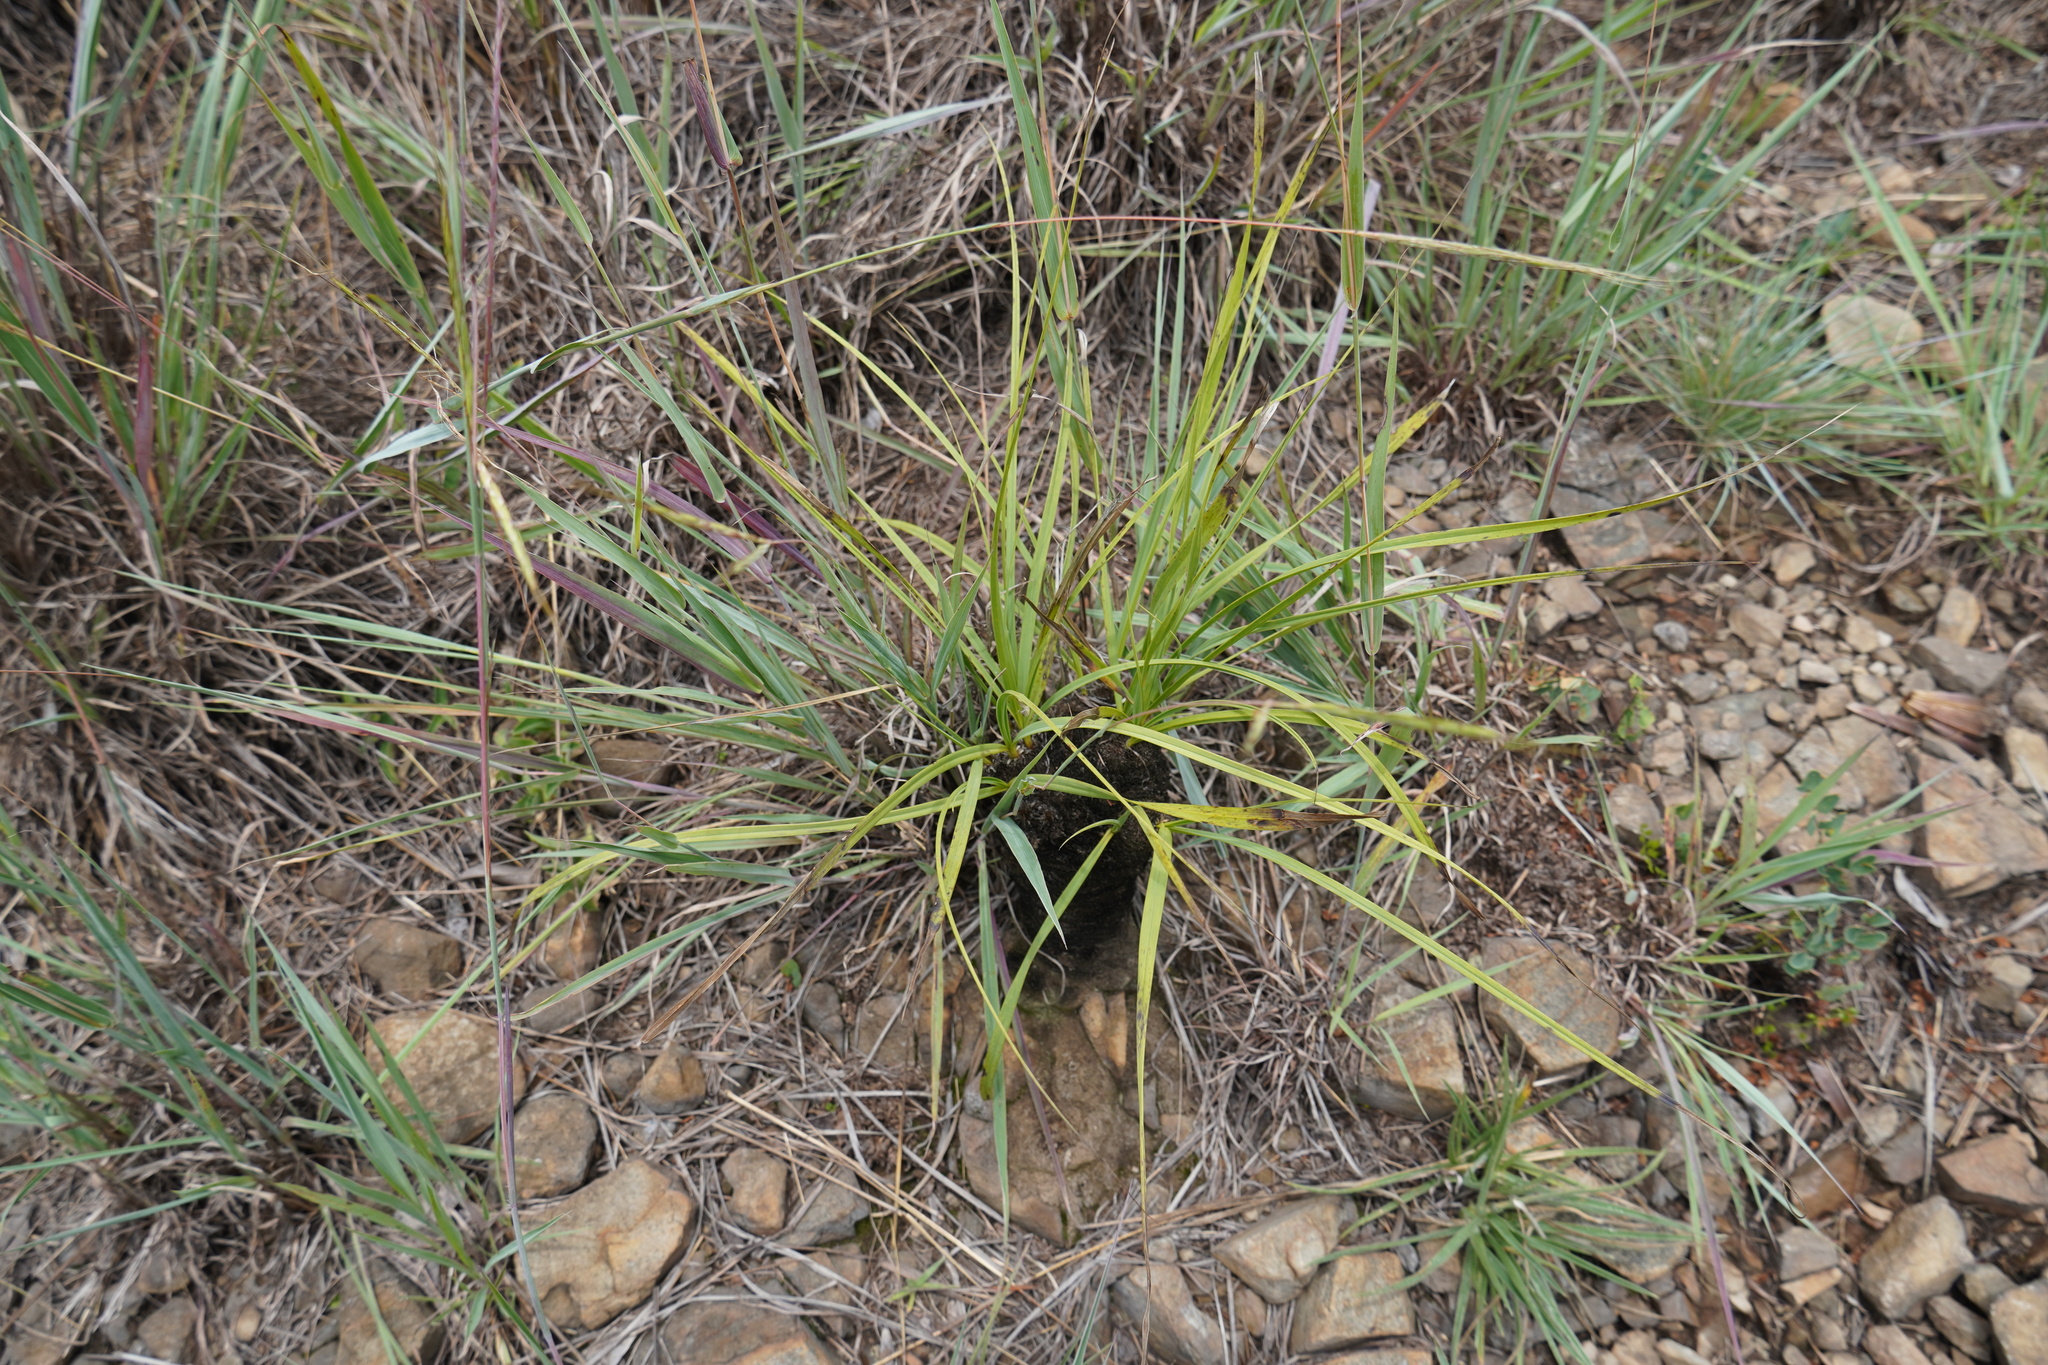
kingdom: Plantae
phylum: Tracheophyta
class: Liliopsida
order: Pandanales
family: Velloziaceae
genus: Xerophyta
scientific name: Xerophyta retinervis
